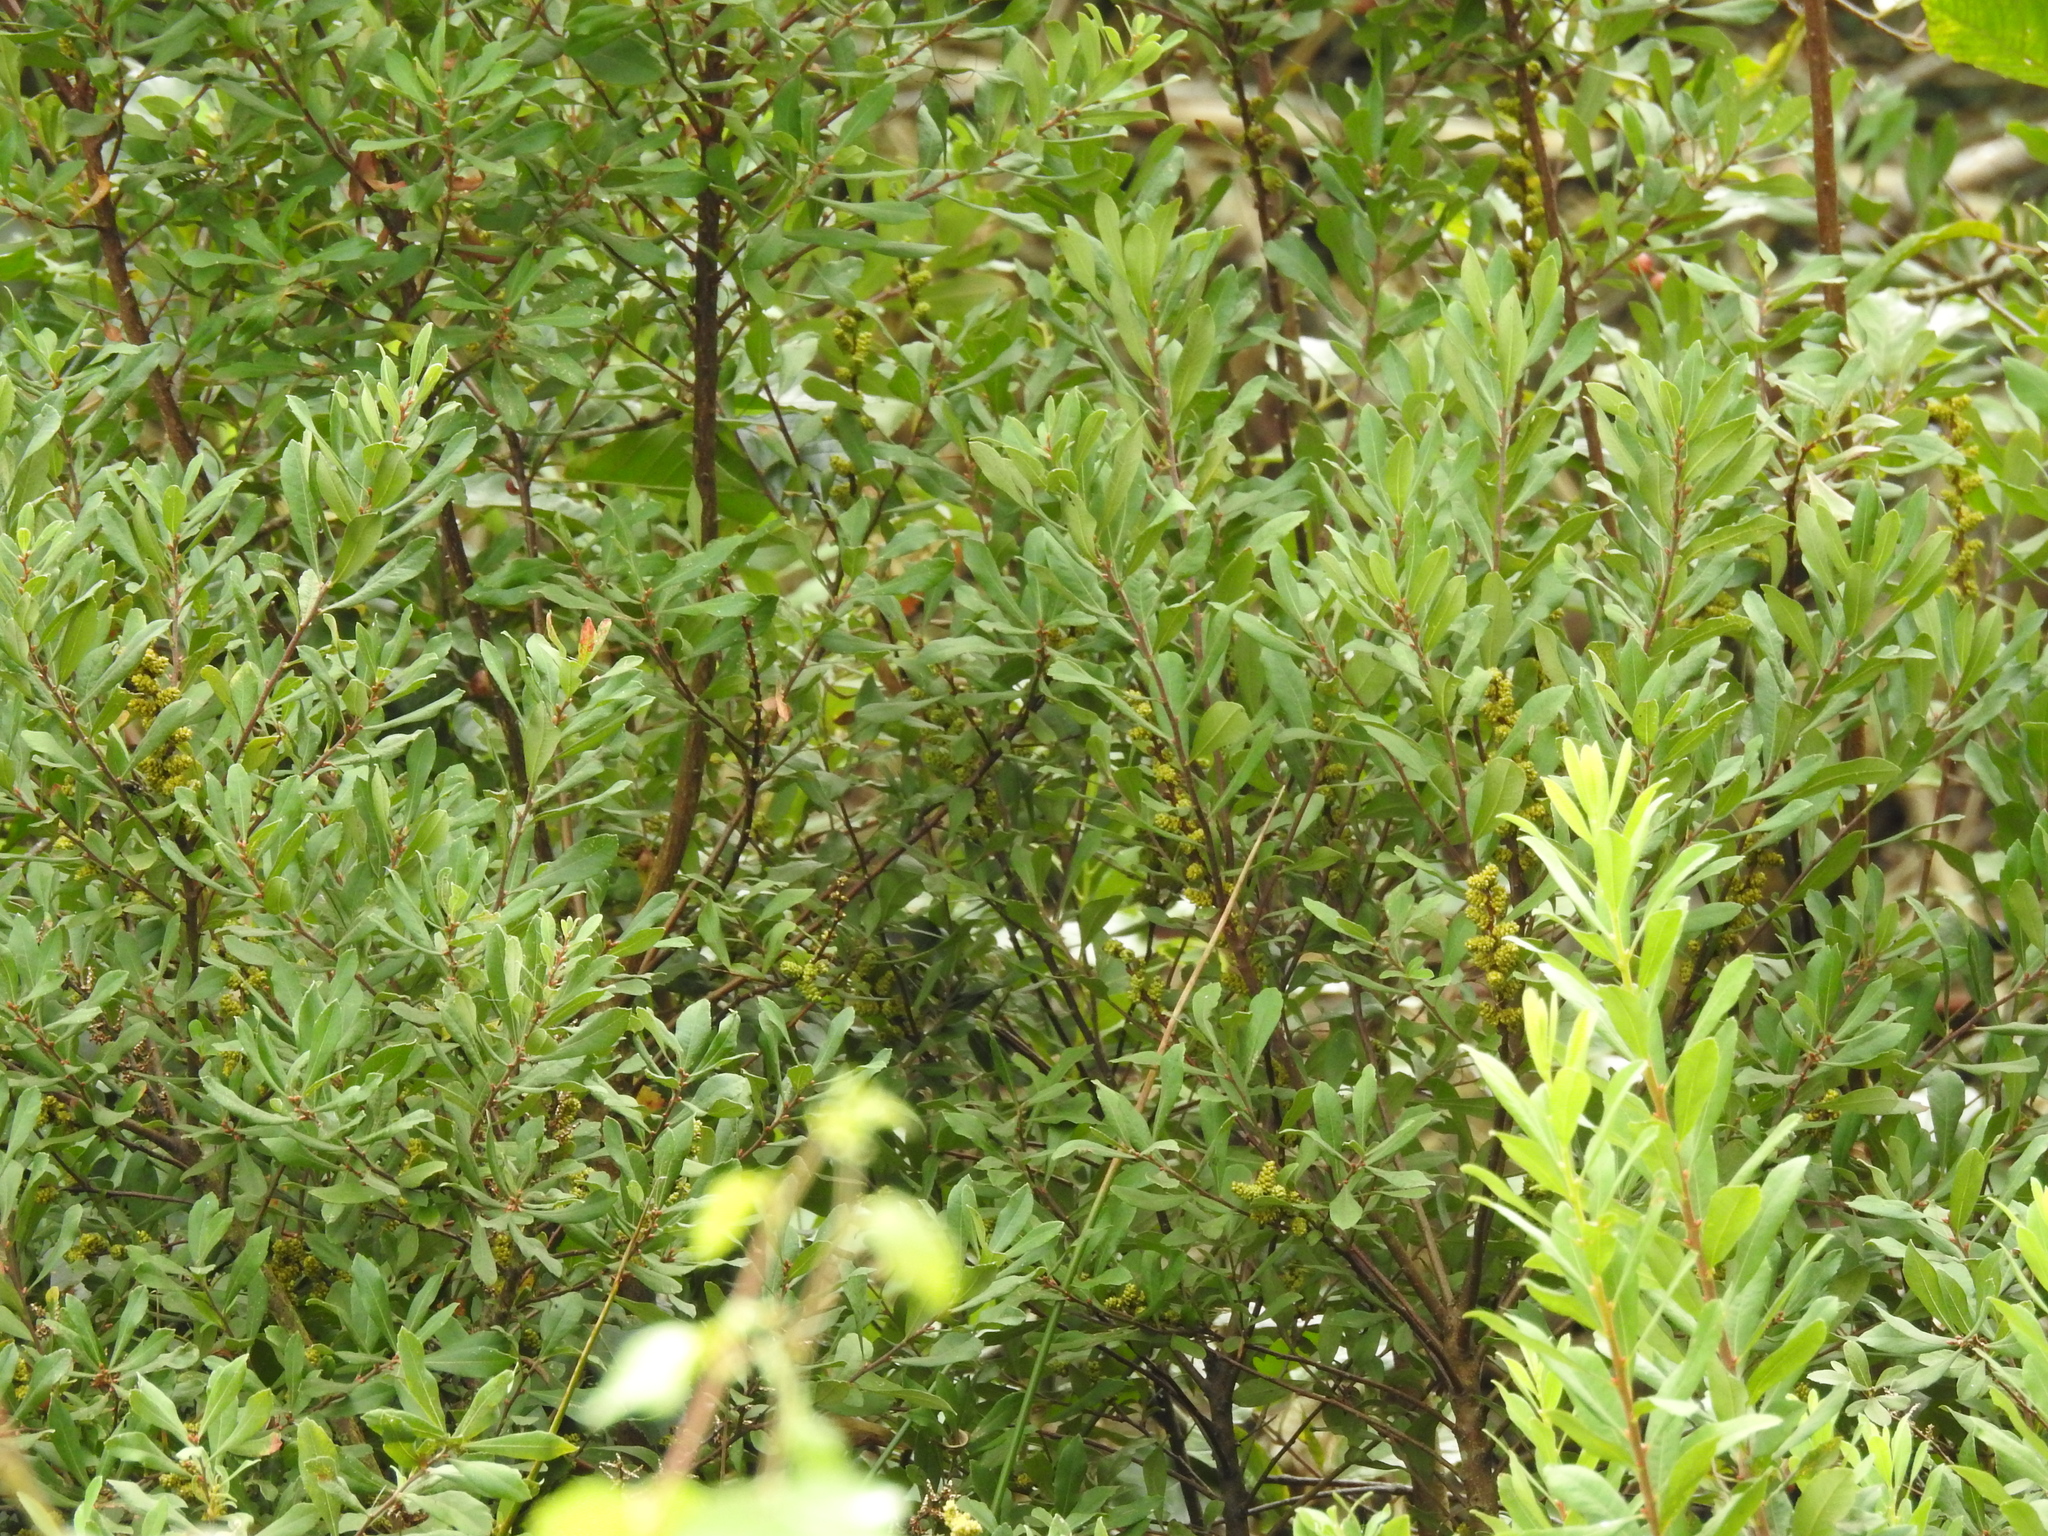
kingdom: Plantae
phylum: Tracheophyta
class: Magnoliopsida
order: Fagales
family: Myricaceae
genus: Myrica
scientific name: Myrica gale
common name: Sweet gale
